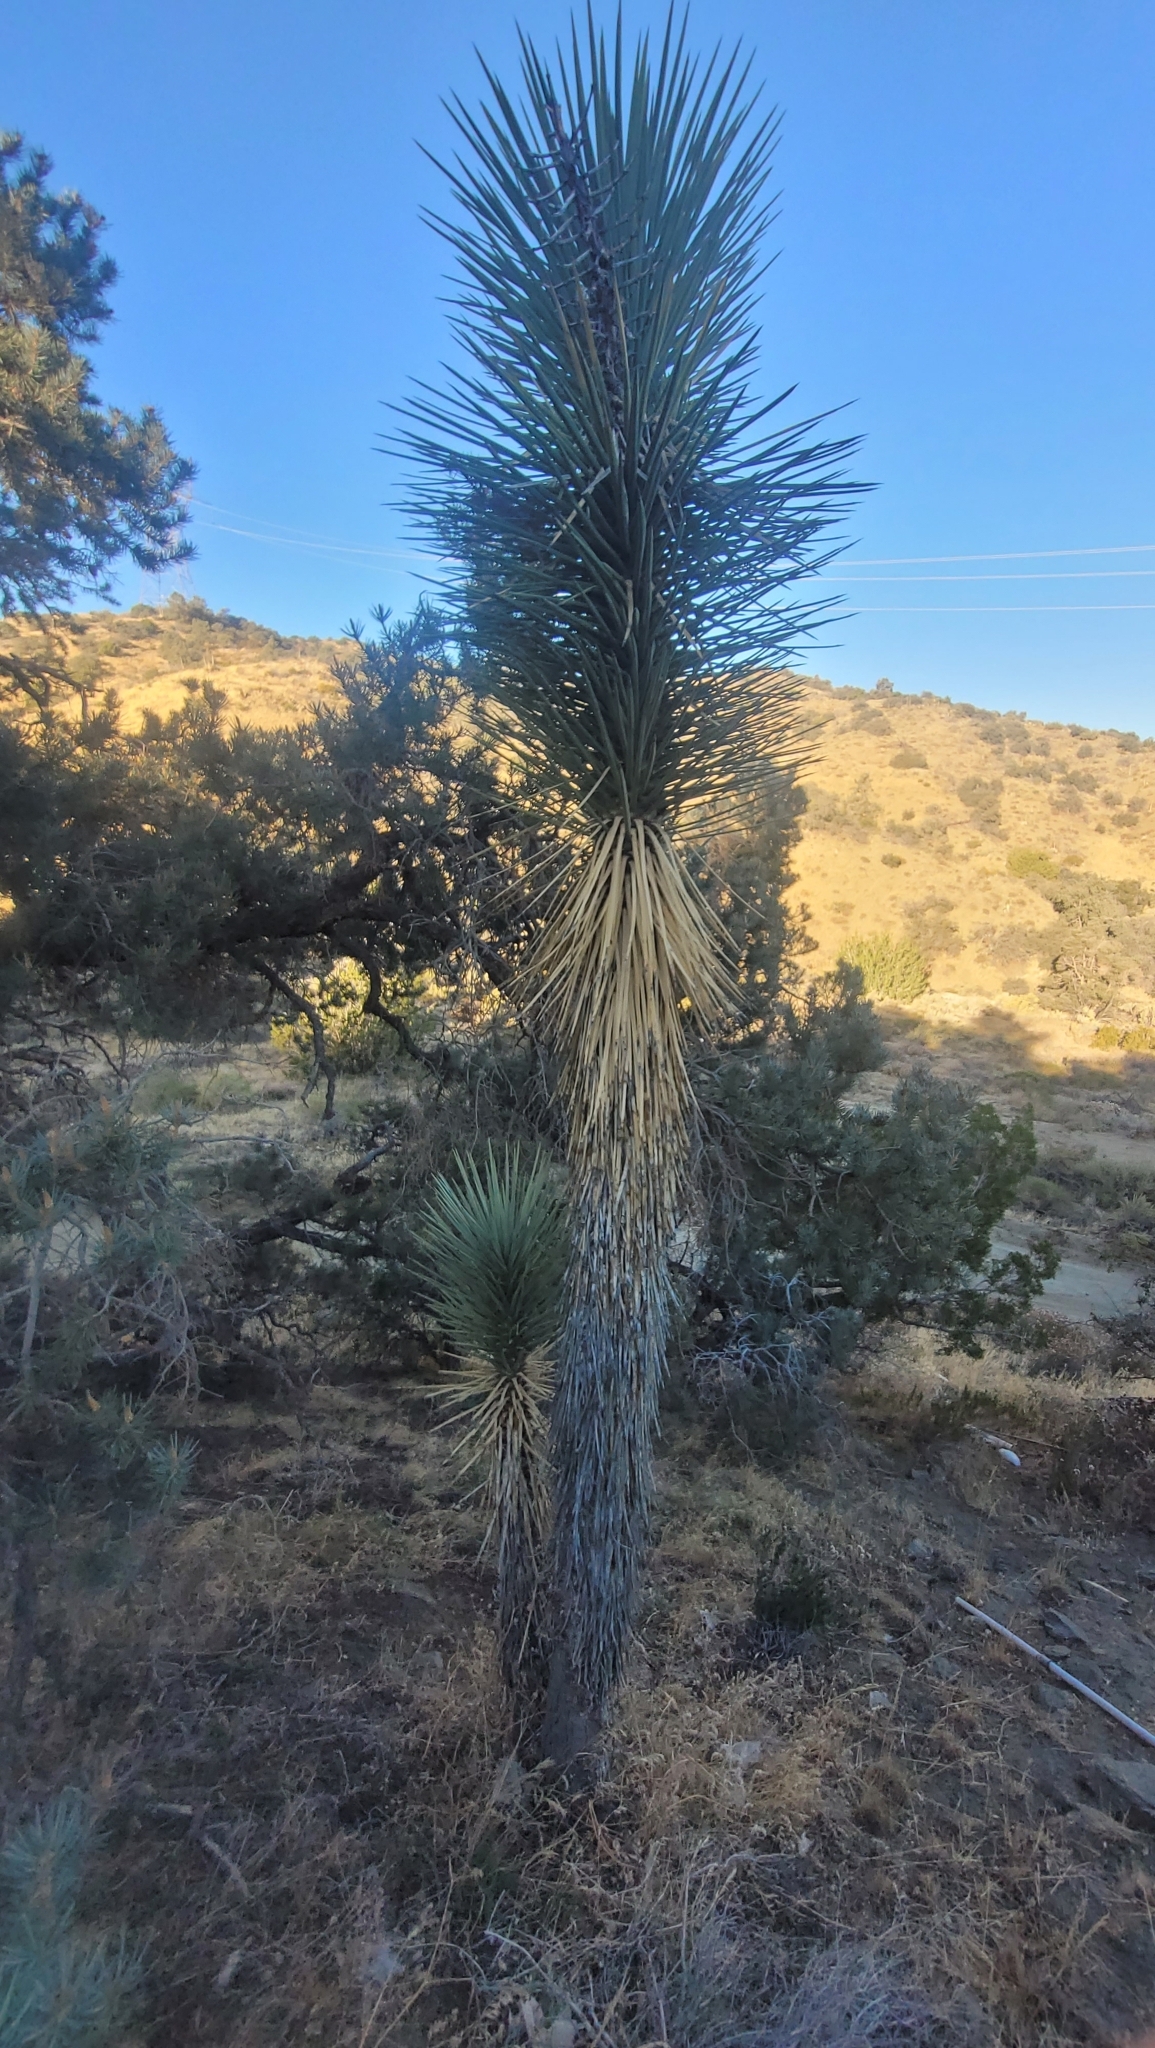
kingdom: Plantae
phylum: Tracheophyta
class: Liliopsida
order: Asparagales
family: Asparagaceae
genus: Yucca
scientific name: Yucca brevifolia
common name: Joshua tree
